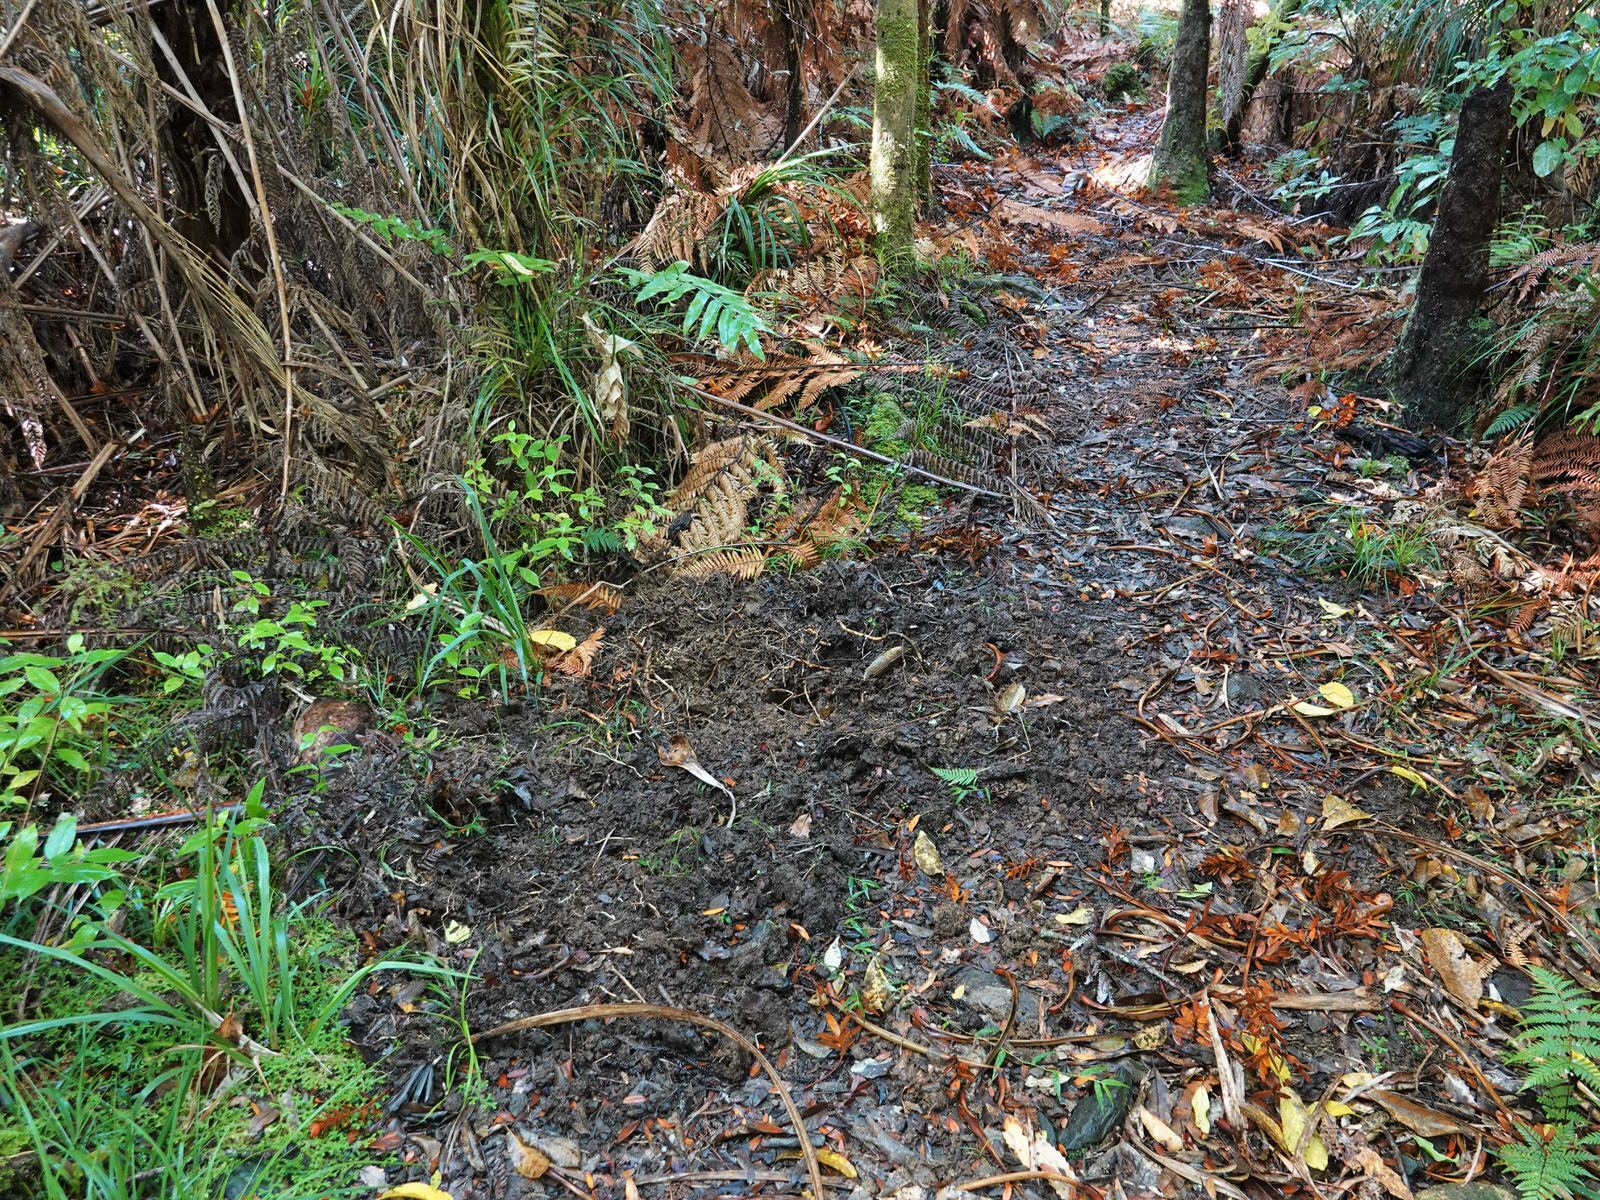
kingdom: Animalia
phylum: Chordata
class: Mammalia
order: Artiodactyla
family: Suidae
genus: Sus
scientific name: Sus scrofa
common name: Wild boar
